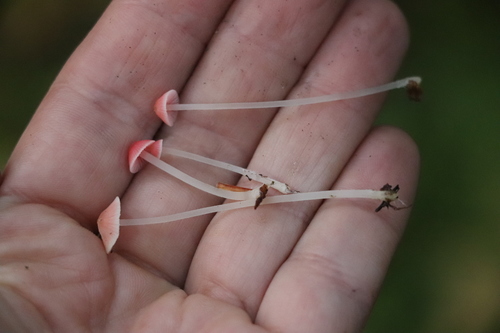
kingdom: Fungi
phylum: Basidiomycota
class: Agaricomycetes
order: Agaricales
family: Mycenaceae
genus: Atheniella
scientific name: Atheniella adonis
